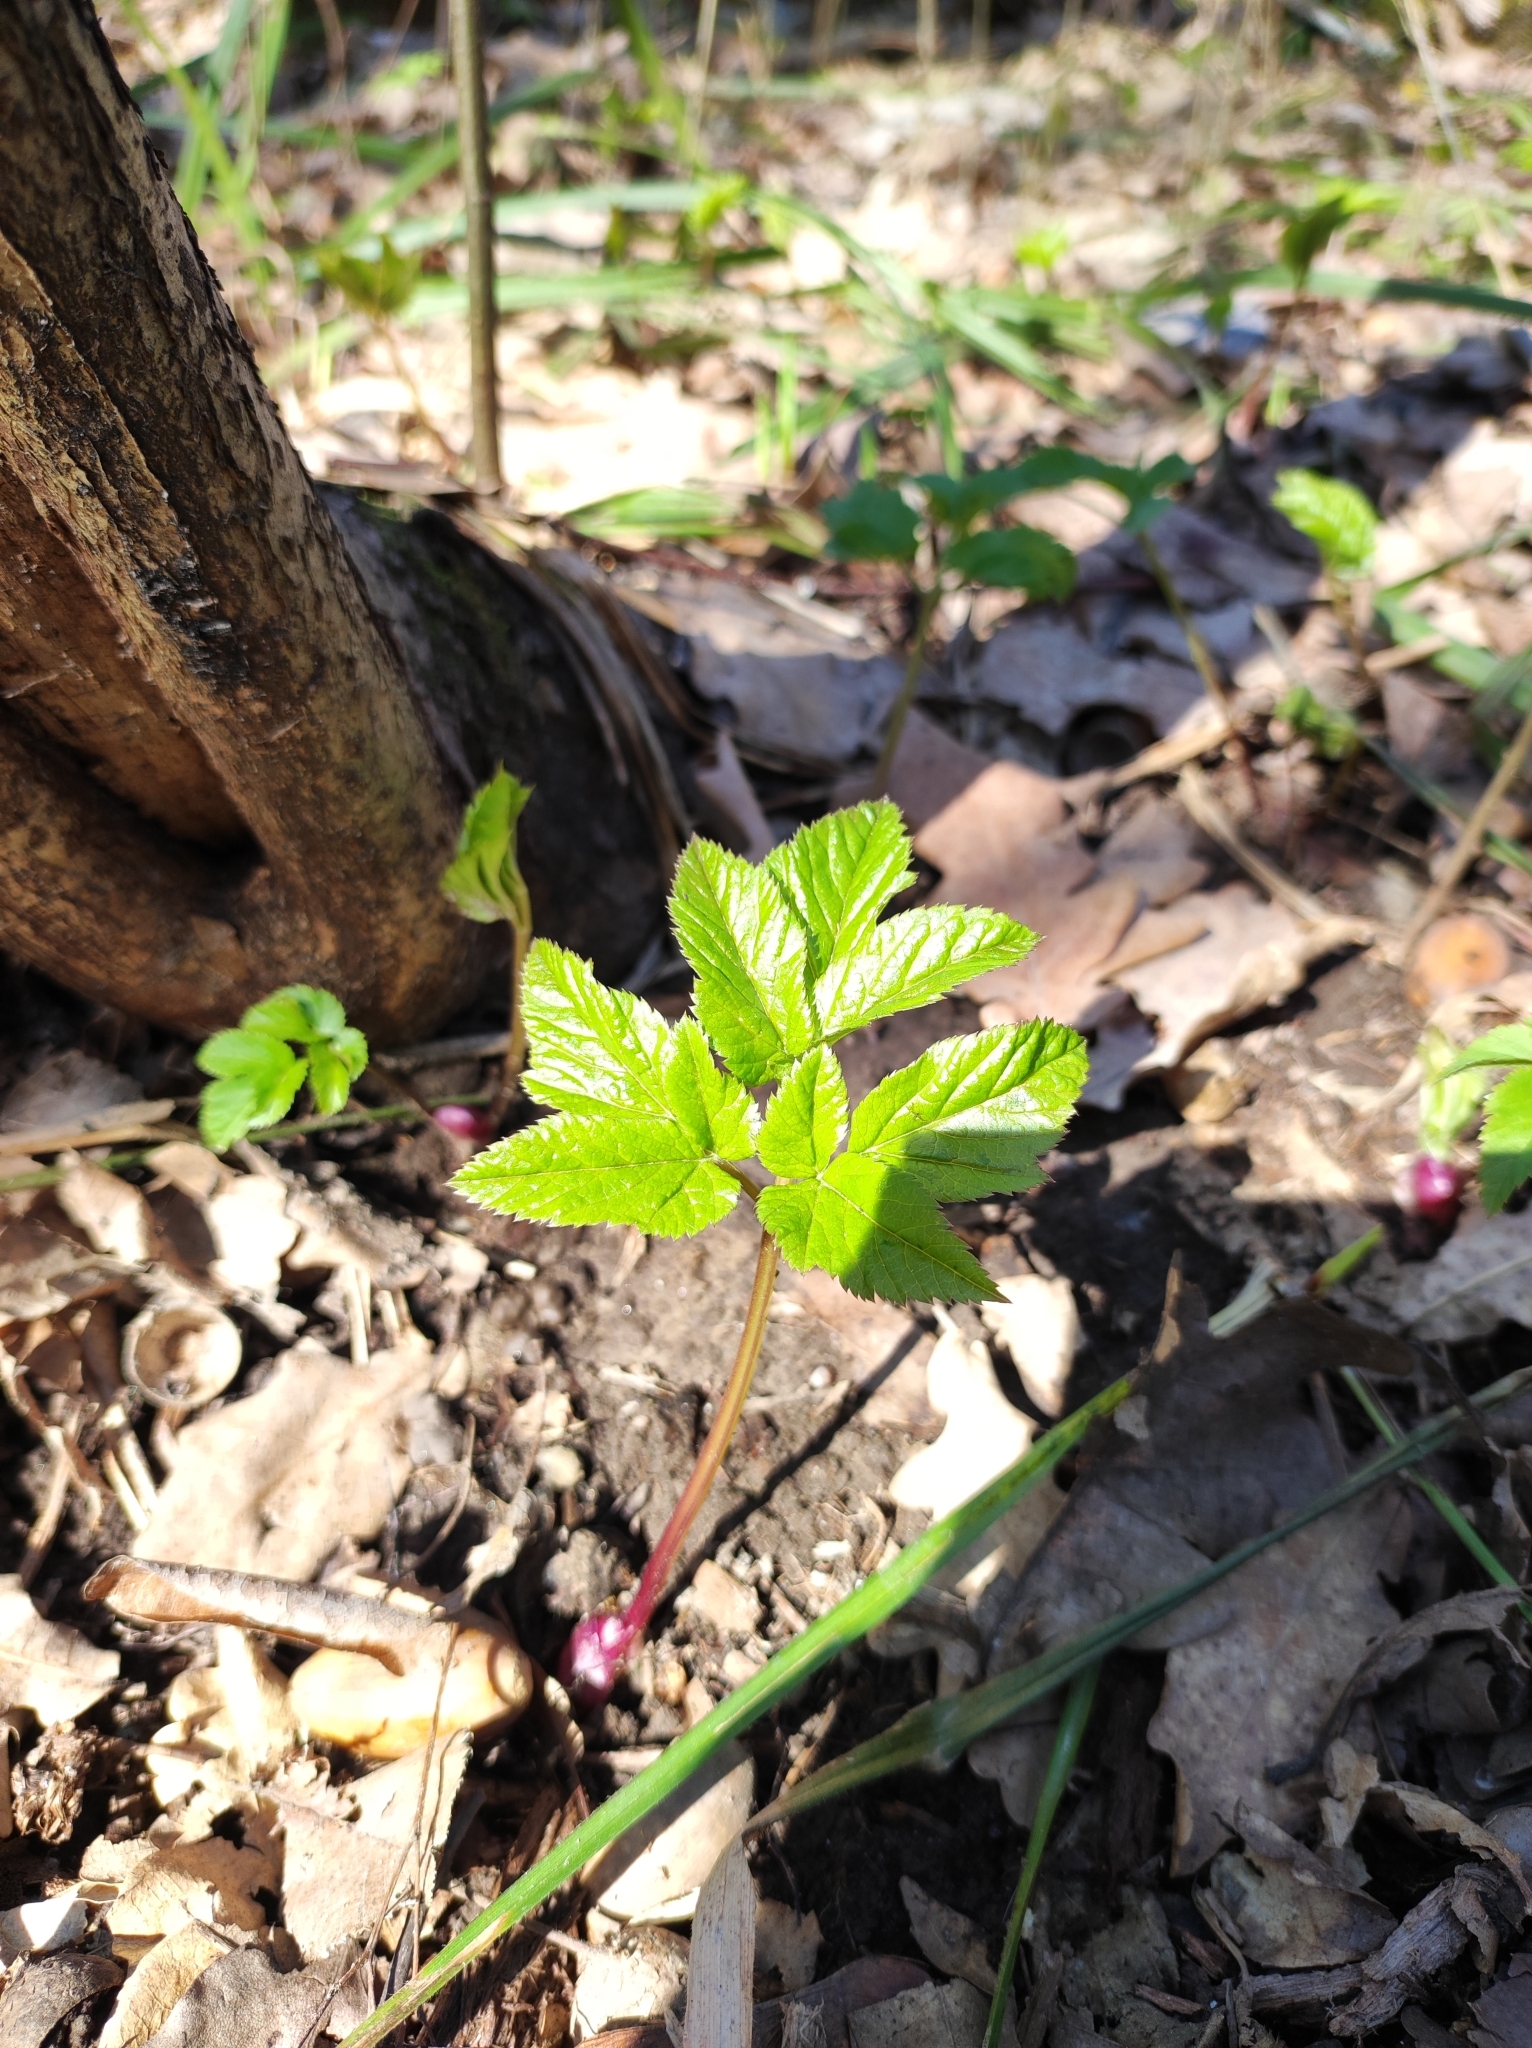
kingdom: Plantae
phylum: Tracheophyta
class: Magnoliopsida
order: Apiales
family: Apiaceae
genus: Aegopodium
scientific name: Aegopodium podagraria
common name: Ground-elder
